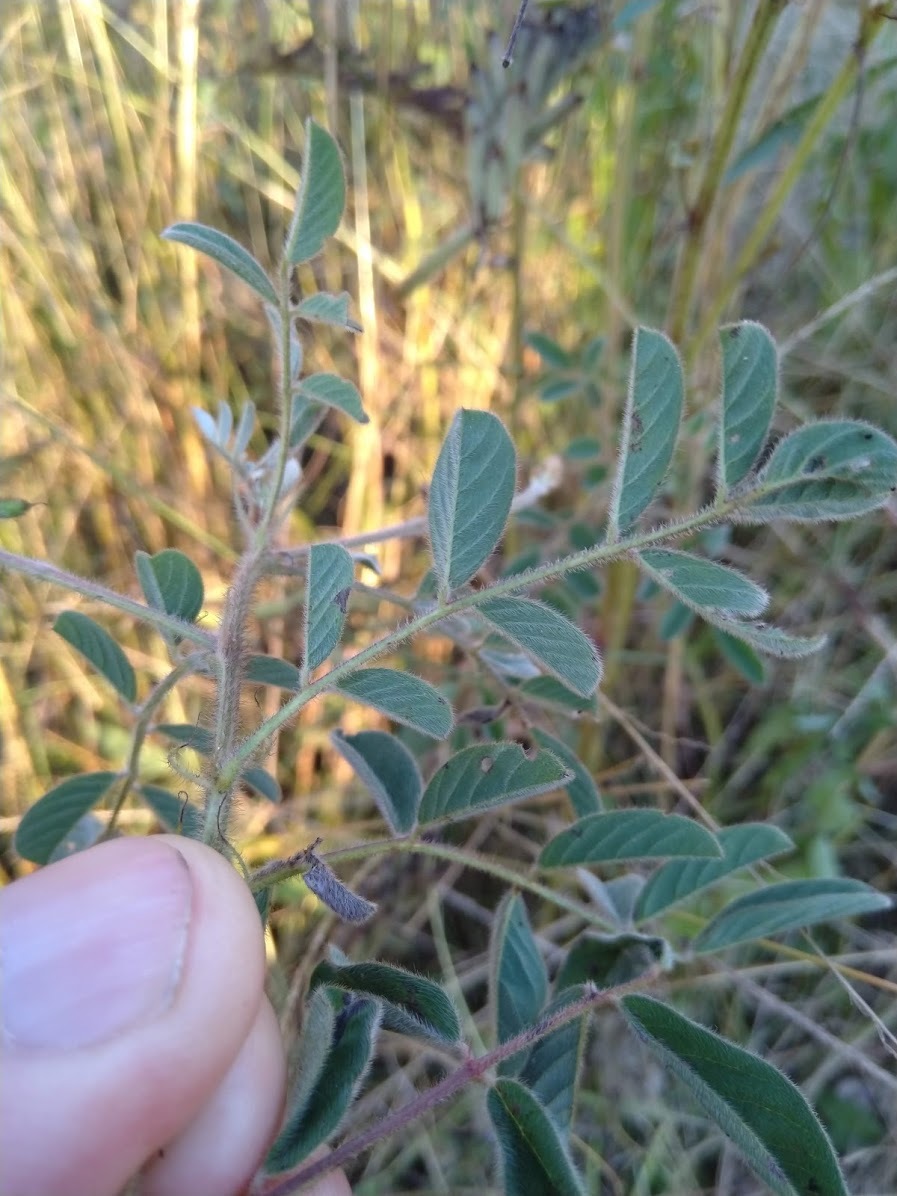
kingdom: Plantae
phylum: Tracheophyta
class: Magnoliopsida
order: Fabales
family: Fabaceae
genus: Indigofera
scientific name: Indigofera hirsuta
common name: Hairy indigo
